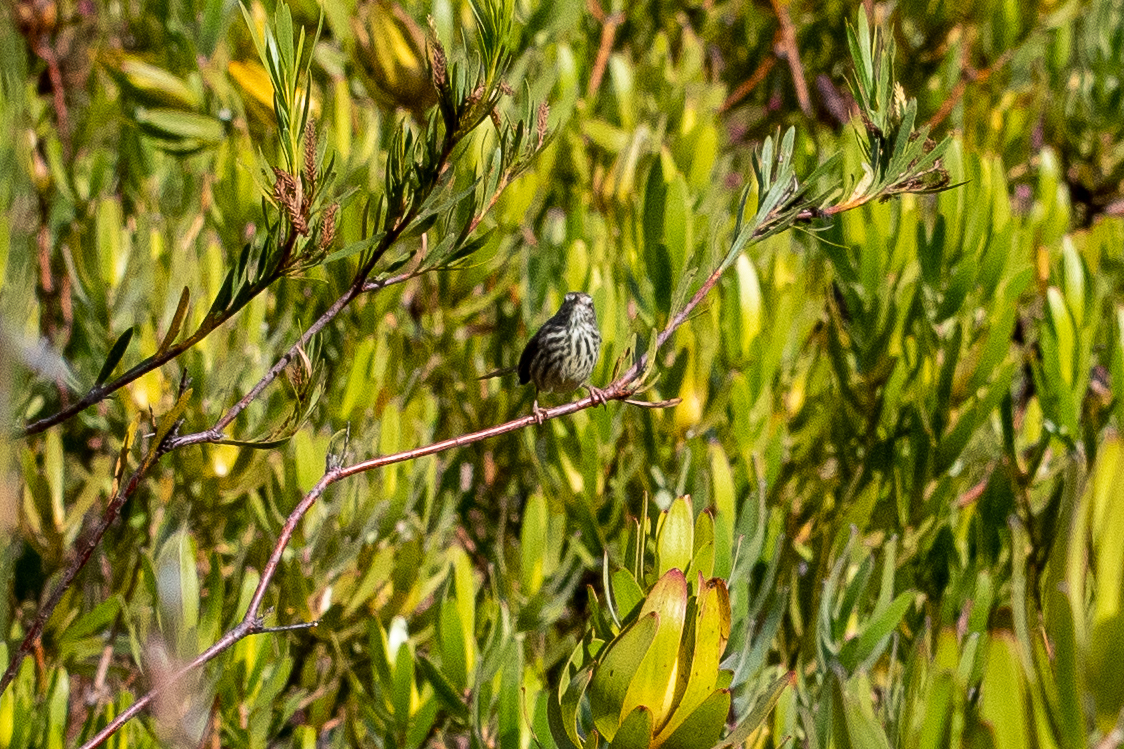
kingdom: Animalia
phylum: Chordata
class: Aves
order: Passeriformes
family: Cisticolidae
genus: Prinia
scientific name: Prinia maculosa
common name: Karoo prinia
